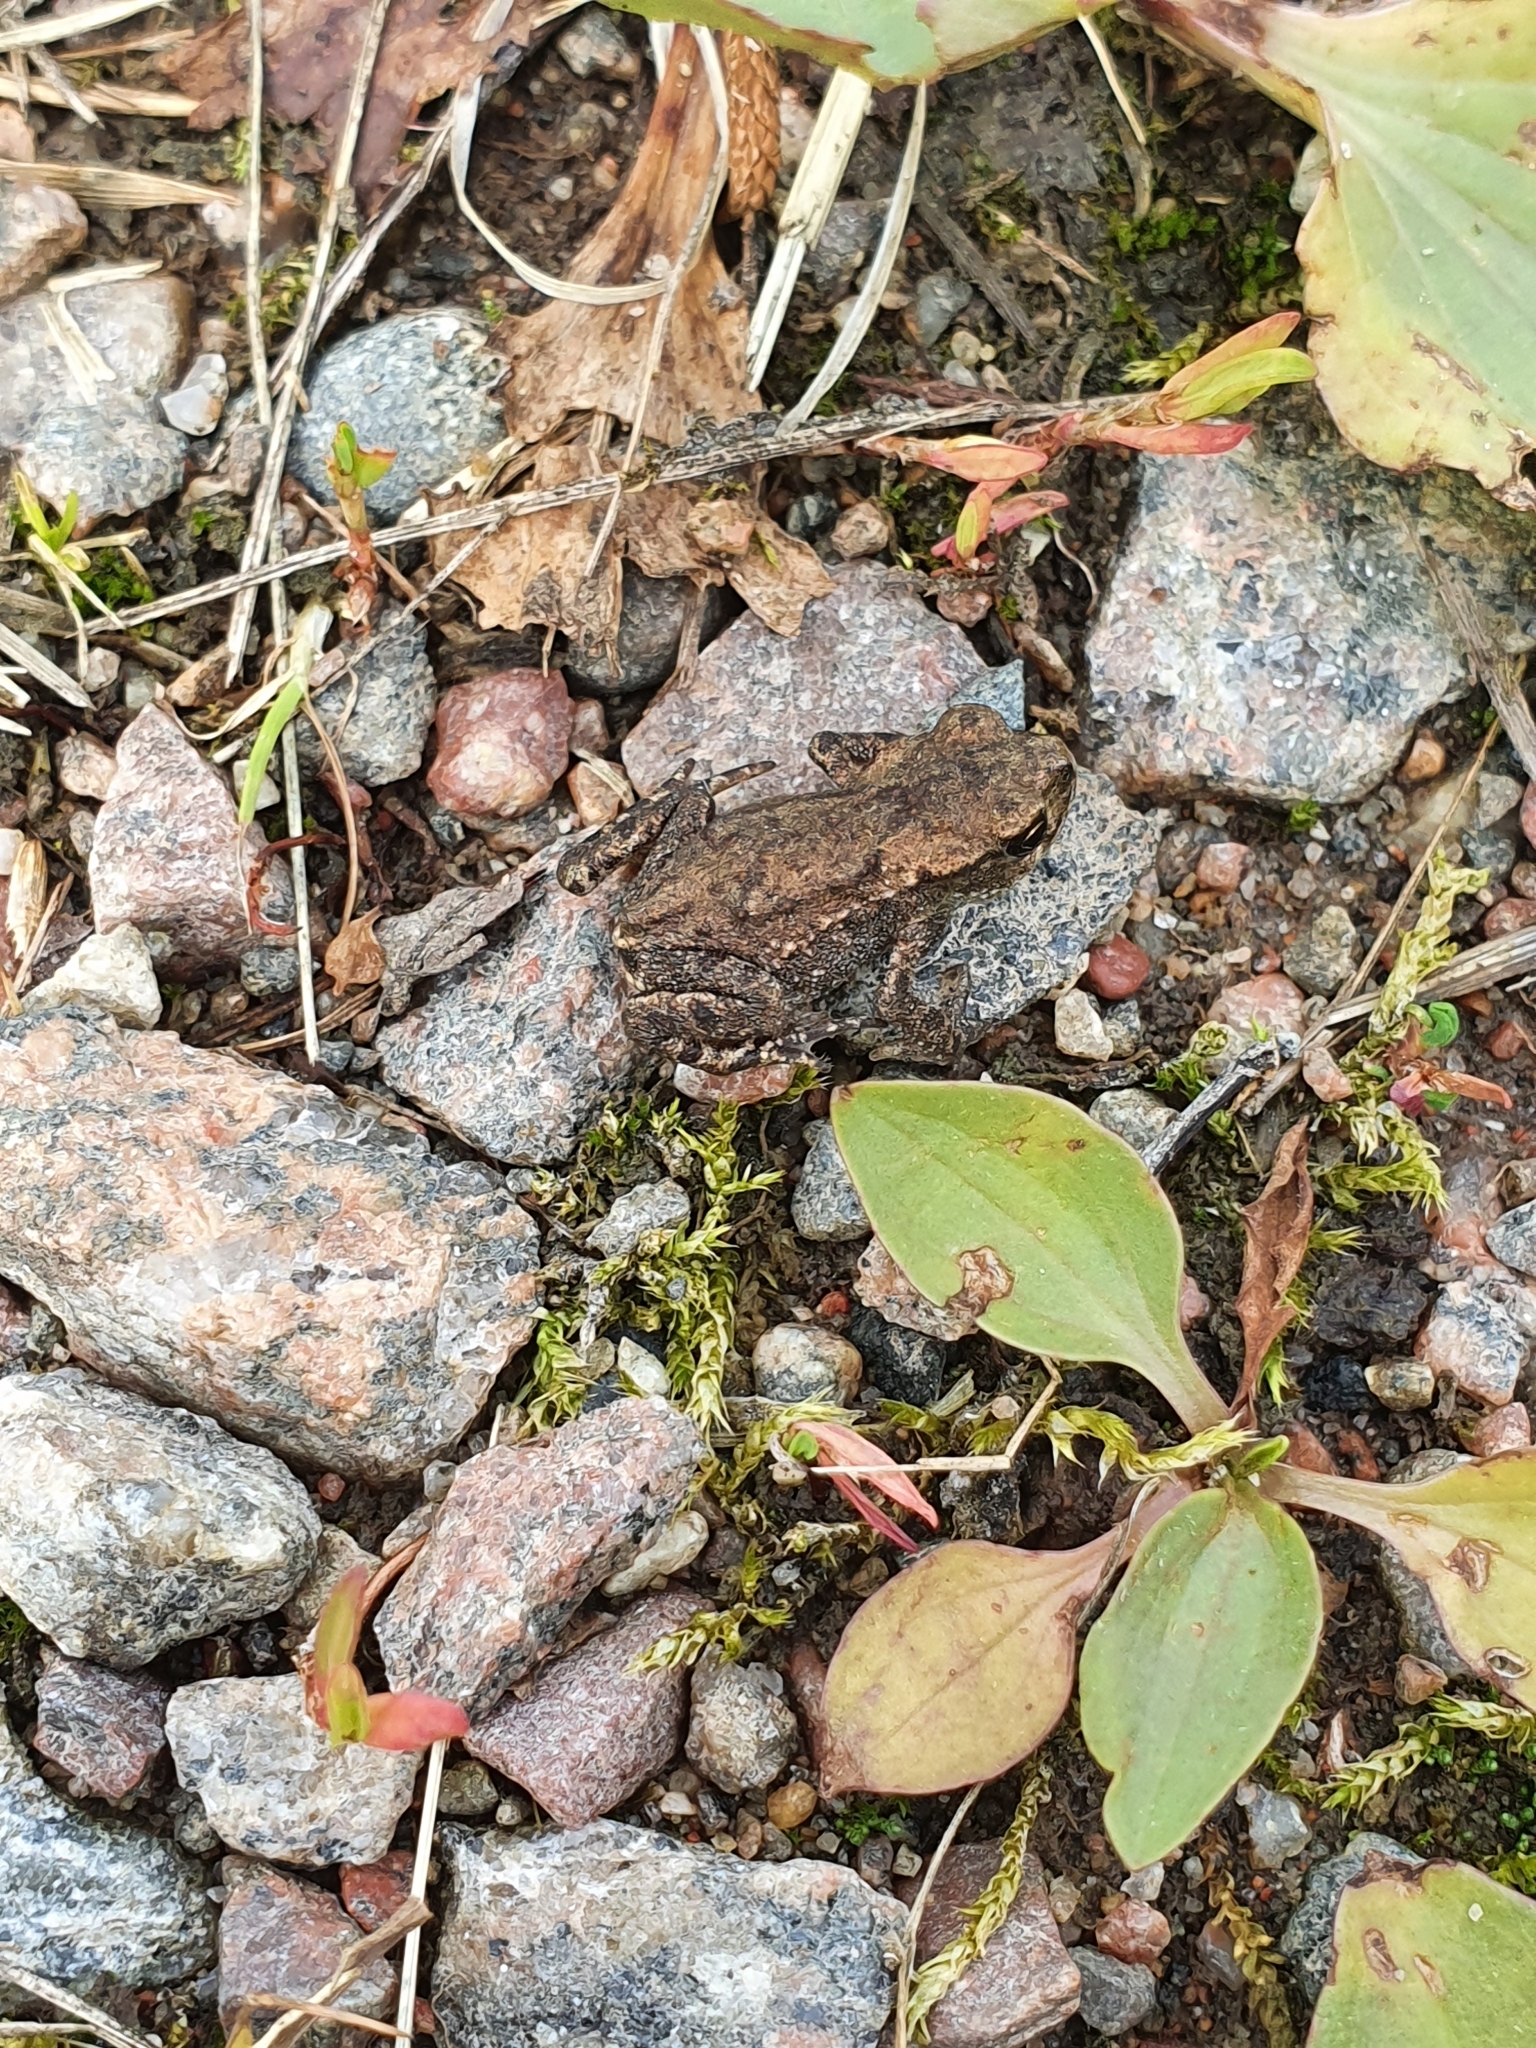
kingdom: Animalia
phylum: Chordata
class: Amphibia
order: Anura
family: Bufonidae
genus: Bufo
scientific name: Bufo bufo
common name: Common toad
